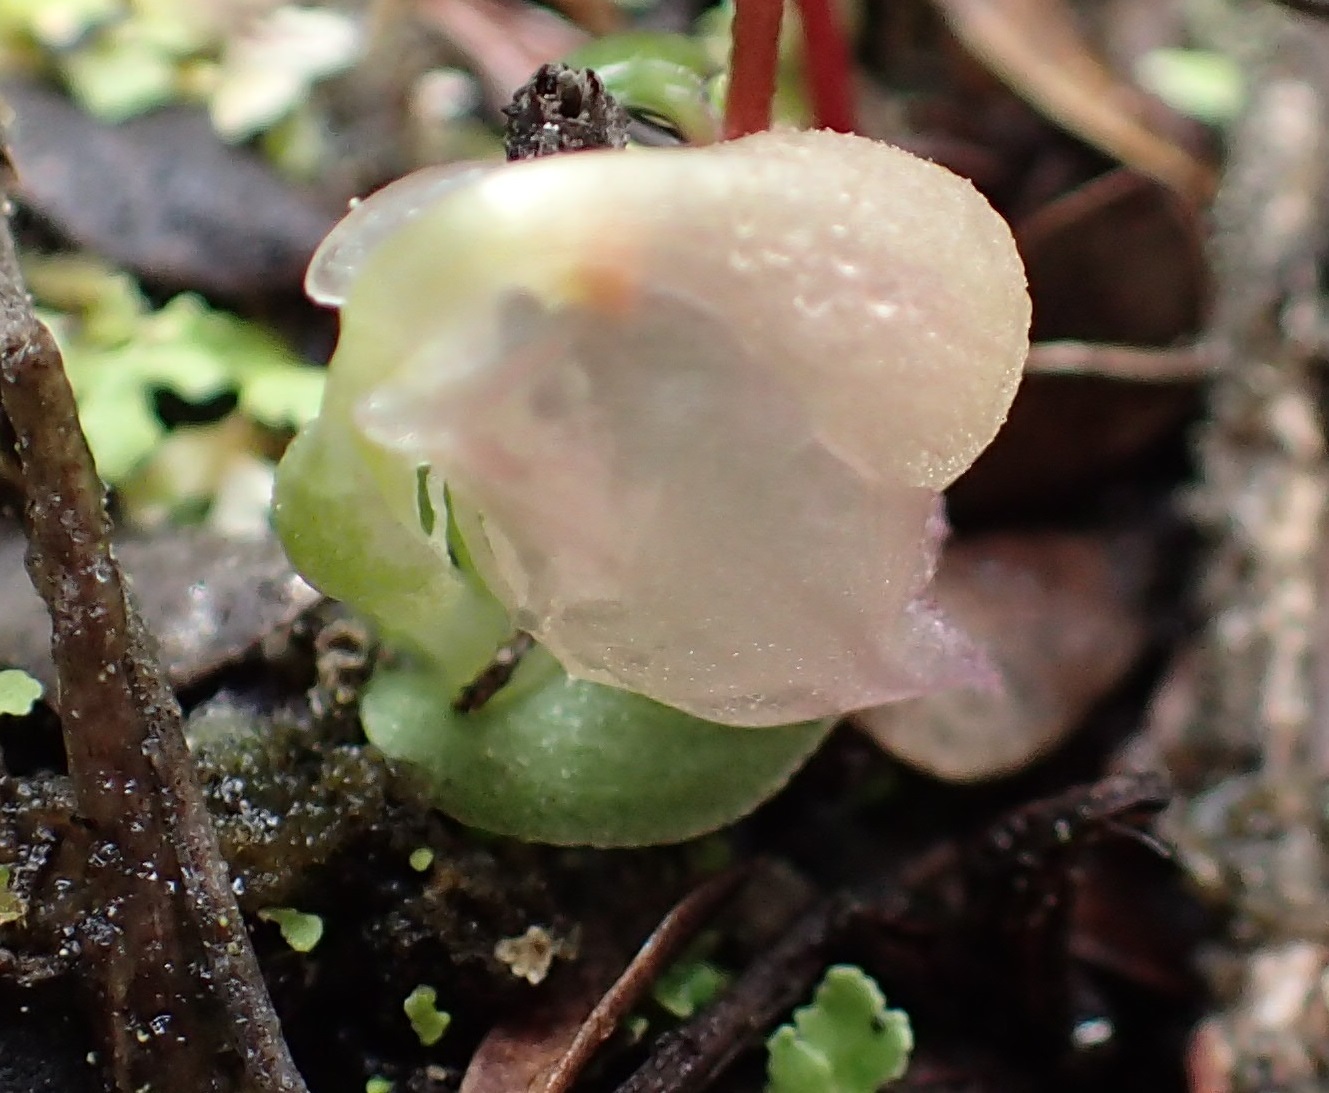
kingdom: Plantae
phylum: Tracheophyta
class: Liliopsida
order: Asparagales
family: Orchidaceae
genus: Corybas
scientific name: Corybas unguiculatus
